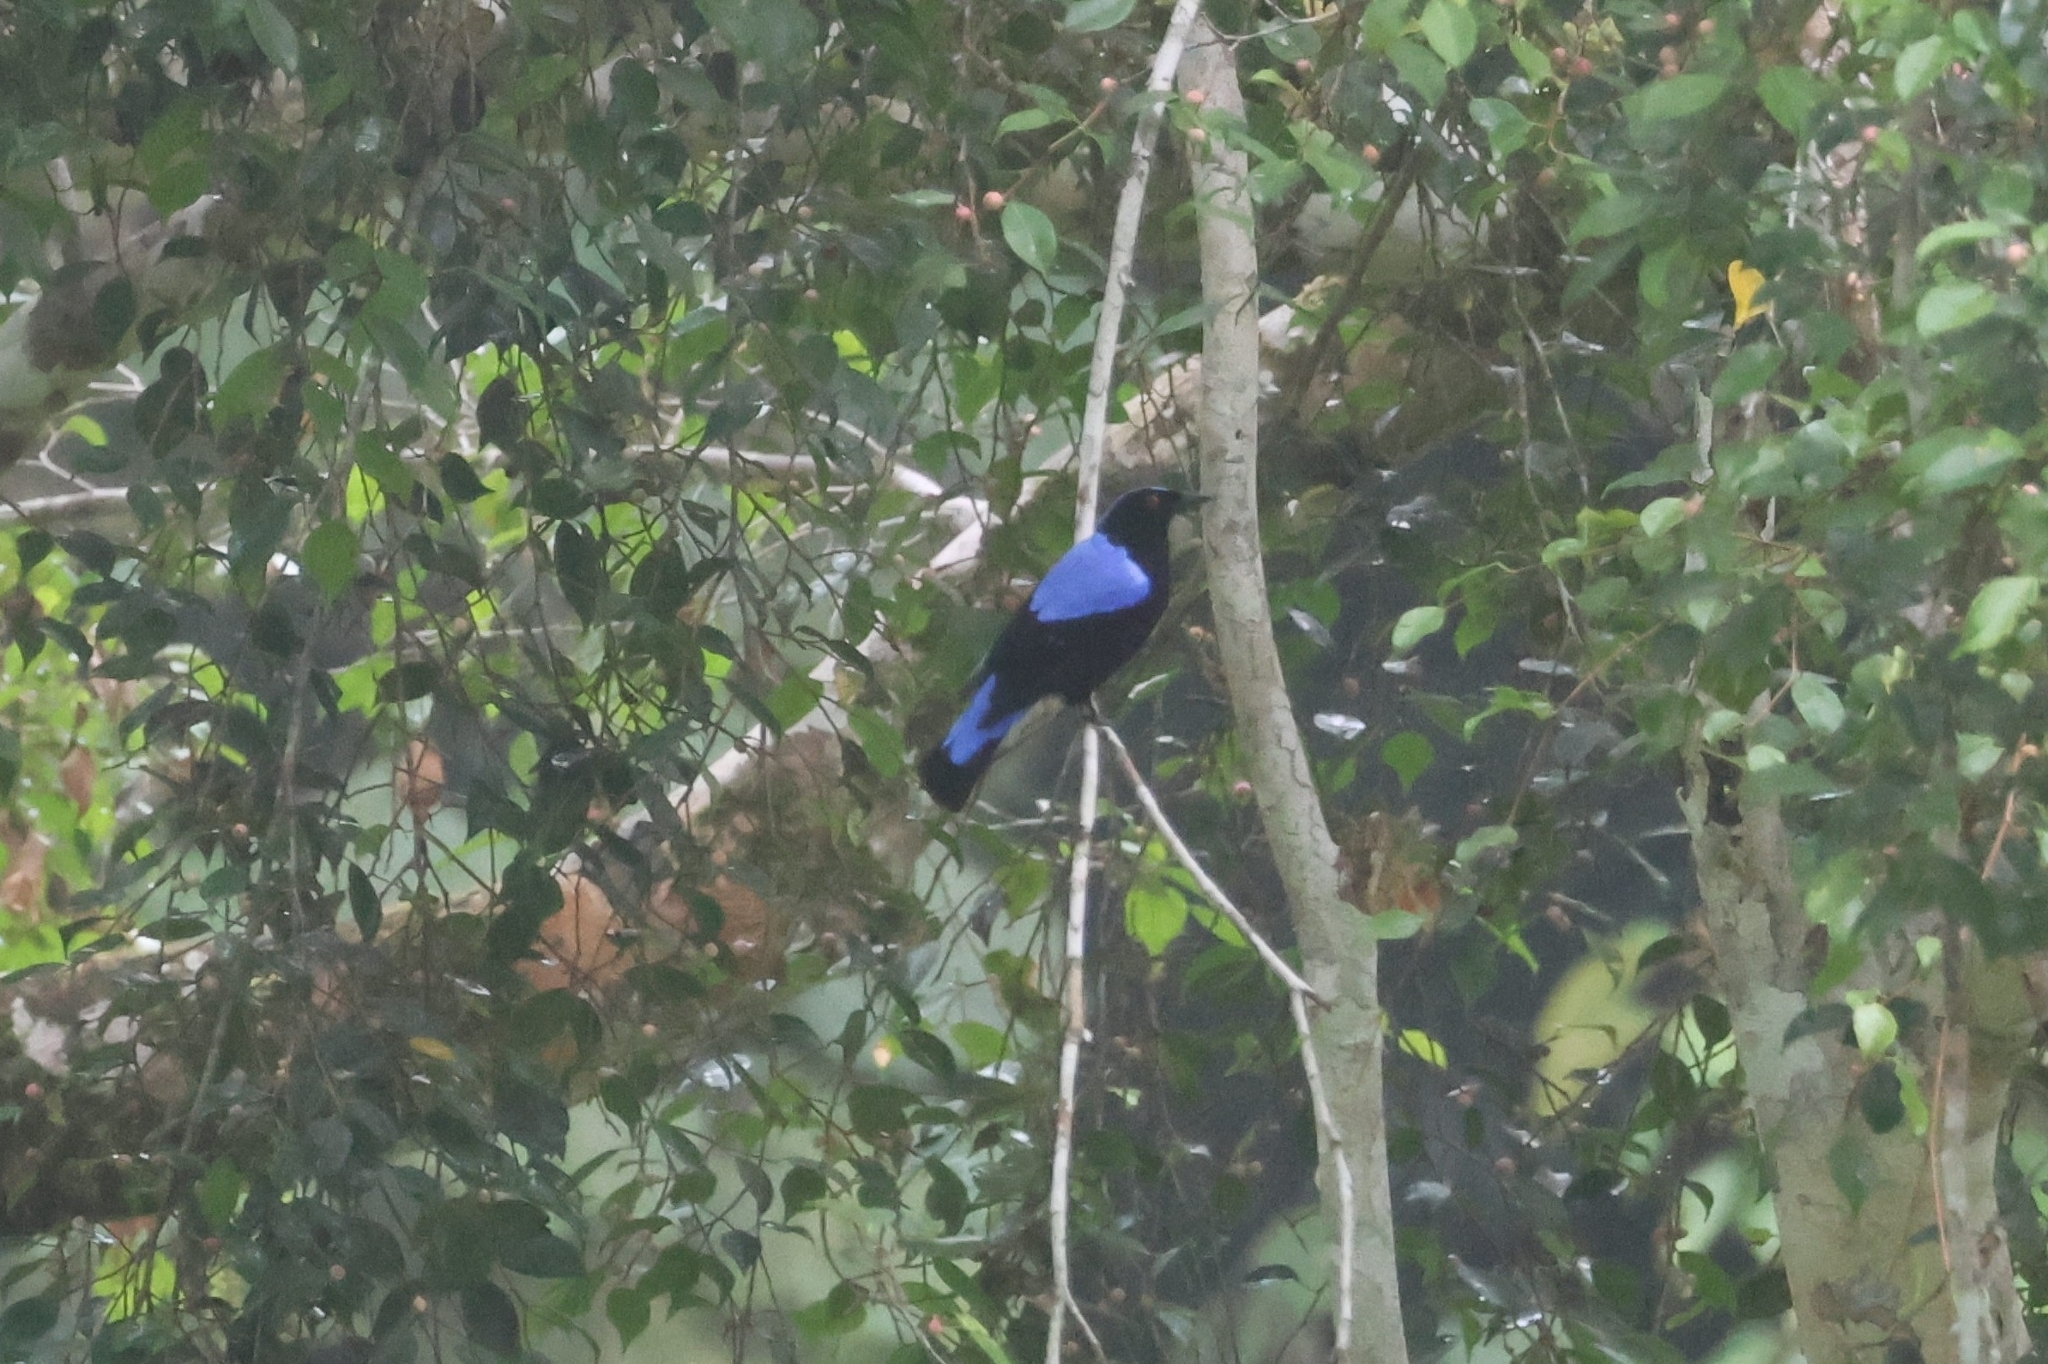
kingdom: Animalia
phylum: Chordata
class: Aves
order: Passeriformes
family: Irenidae
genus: Irena
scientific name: Irena puella
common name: Asian fairy-bluebird
